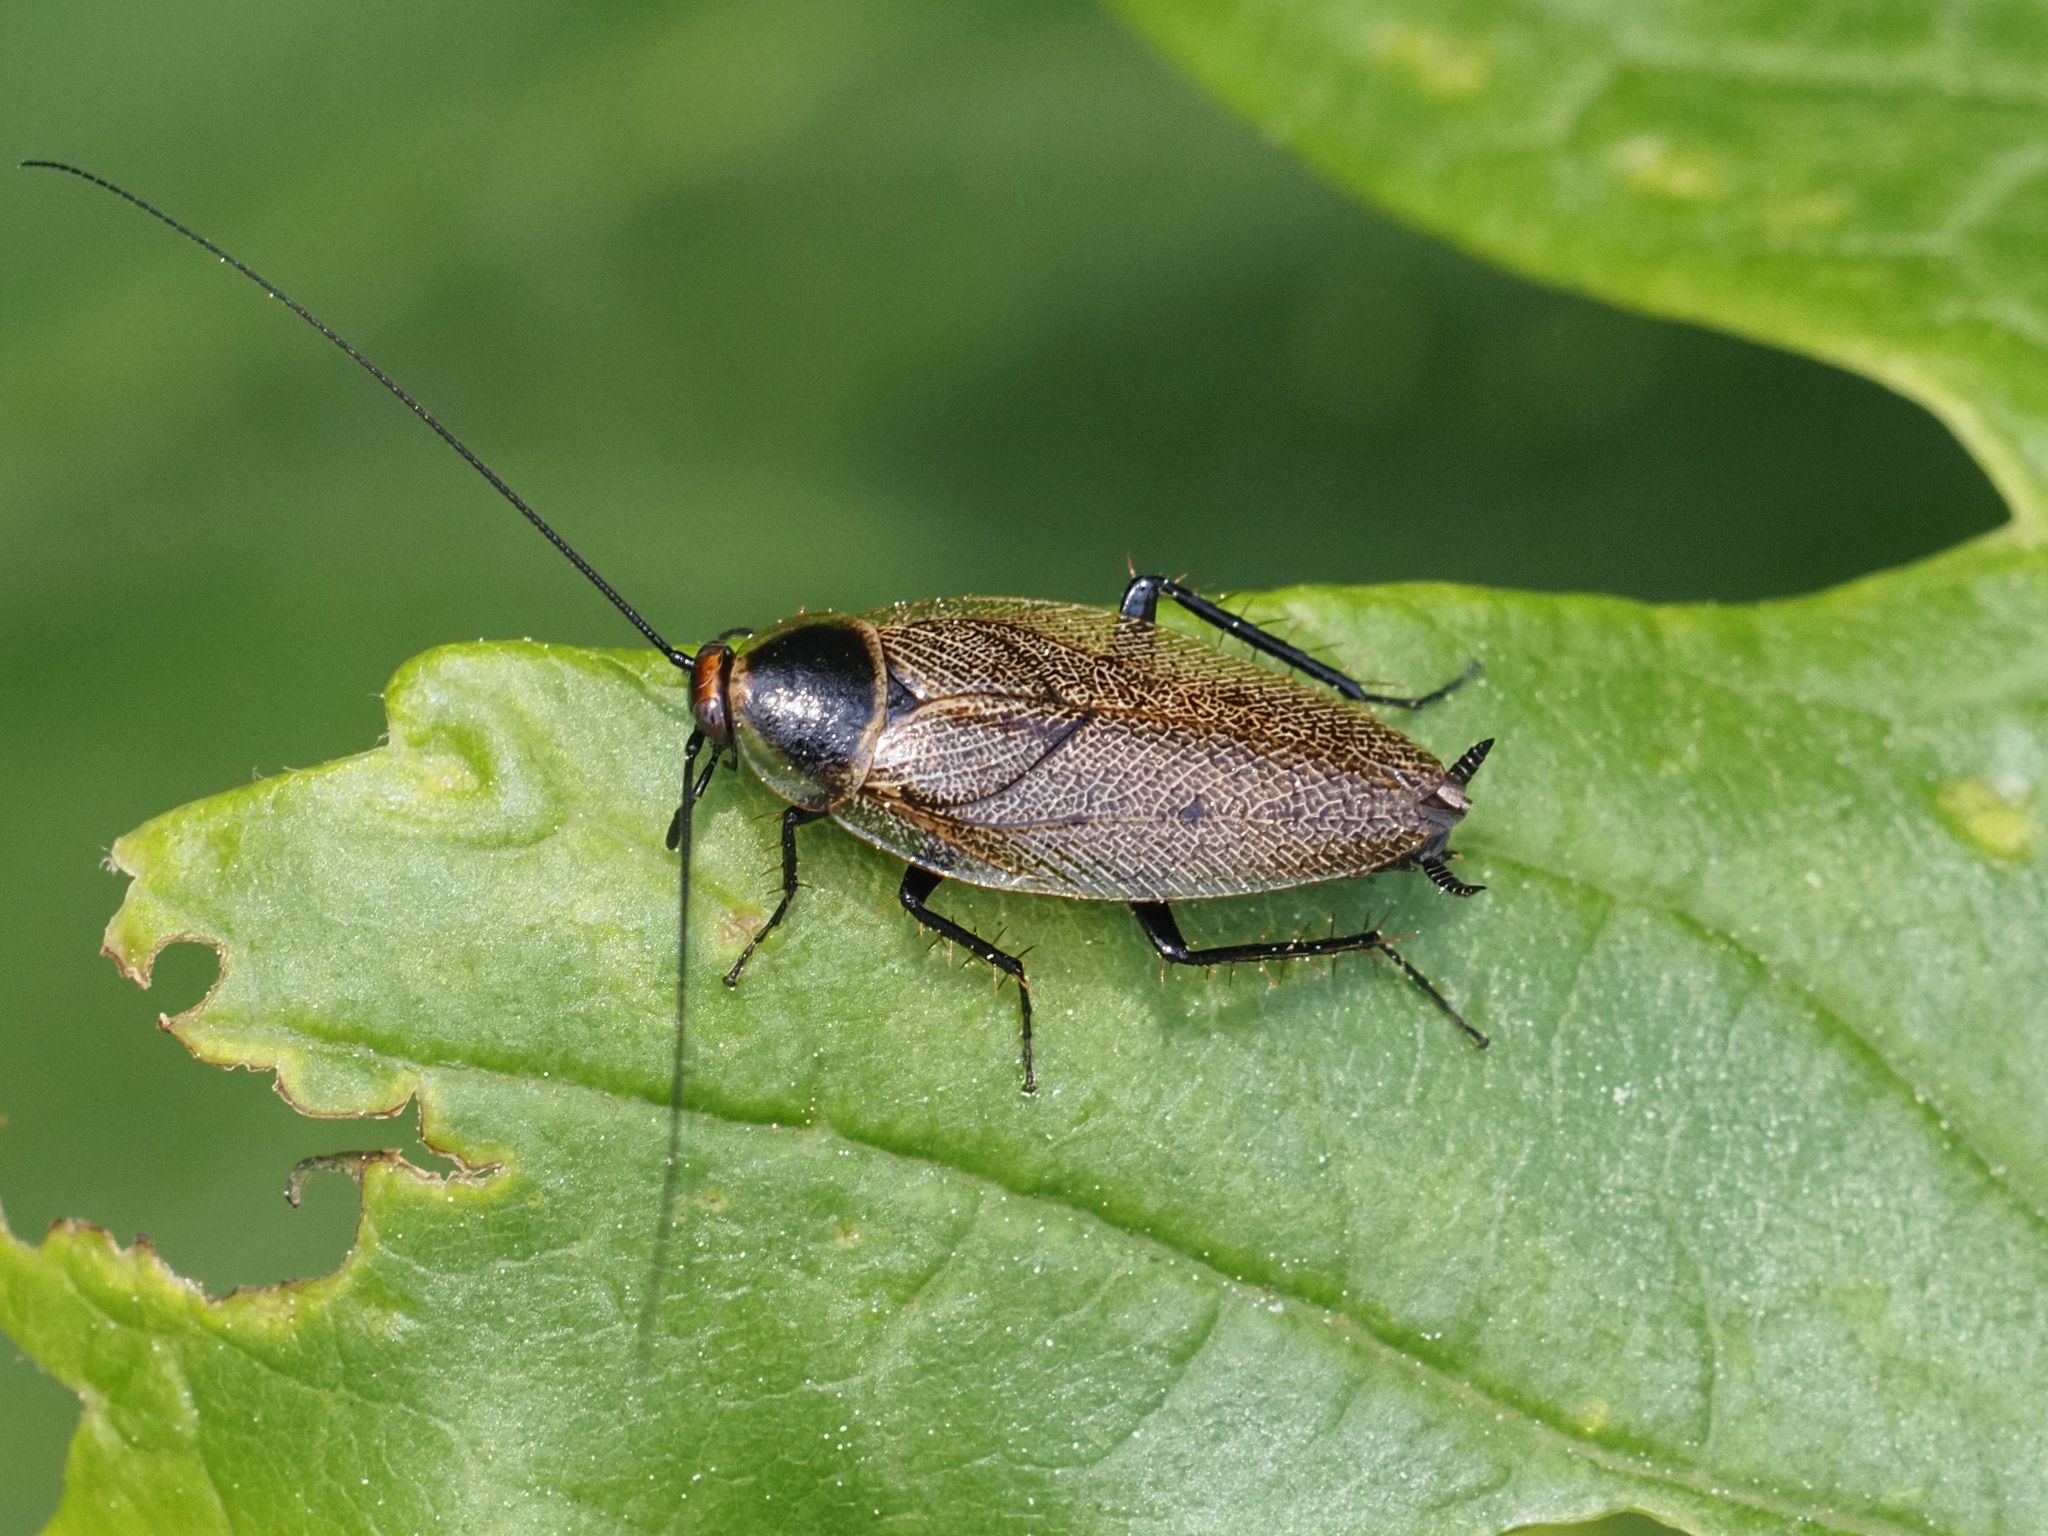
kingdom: Animalia
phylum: Arthropoda
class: Insecta
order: Blattodea
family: Ectobiidae
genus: Ectobius
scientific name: Ectobius erythronotus
